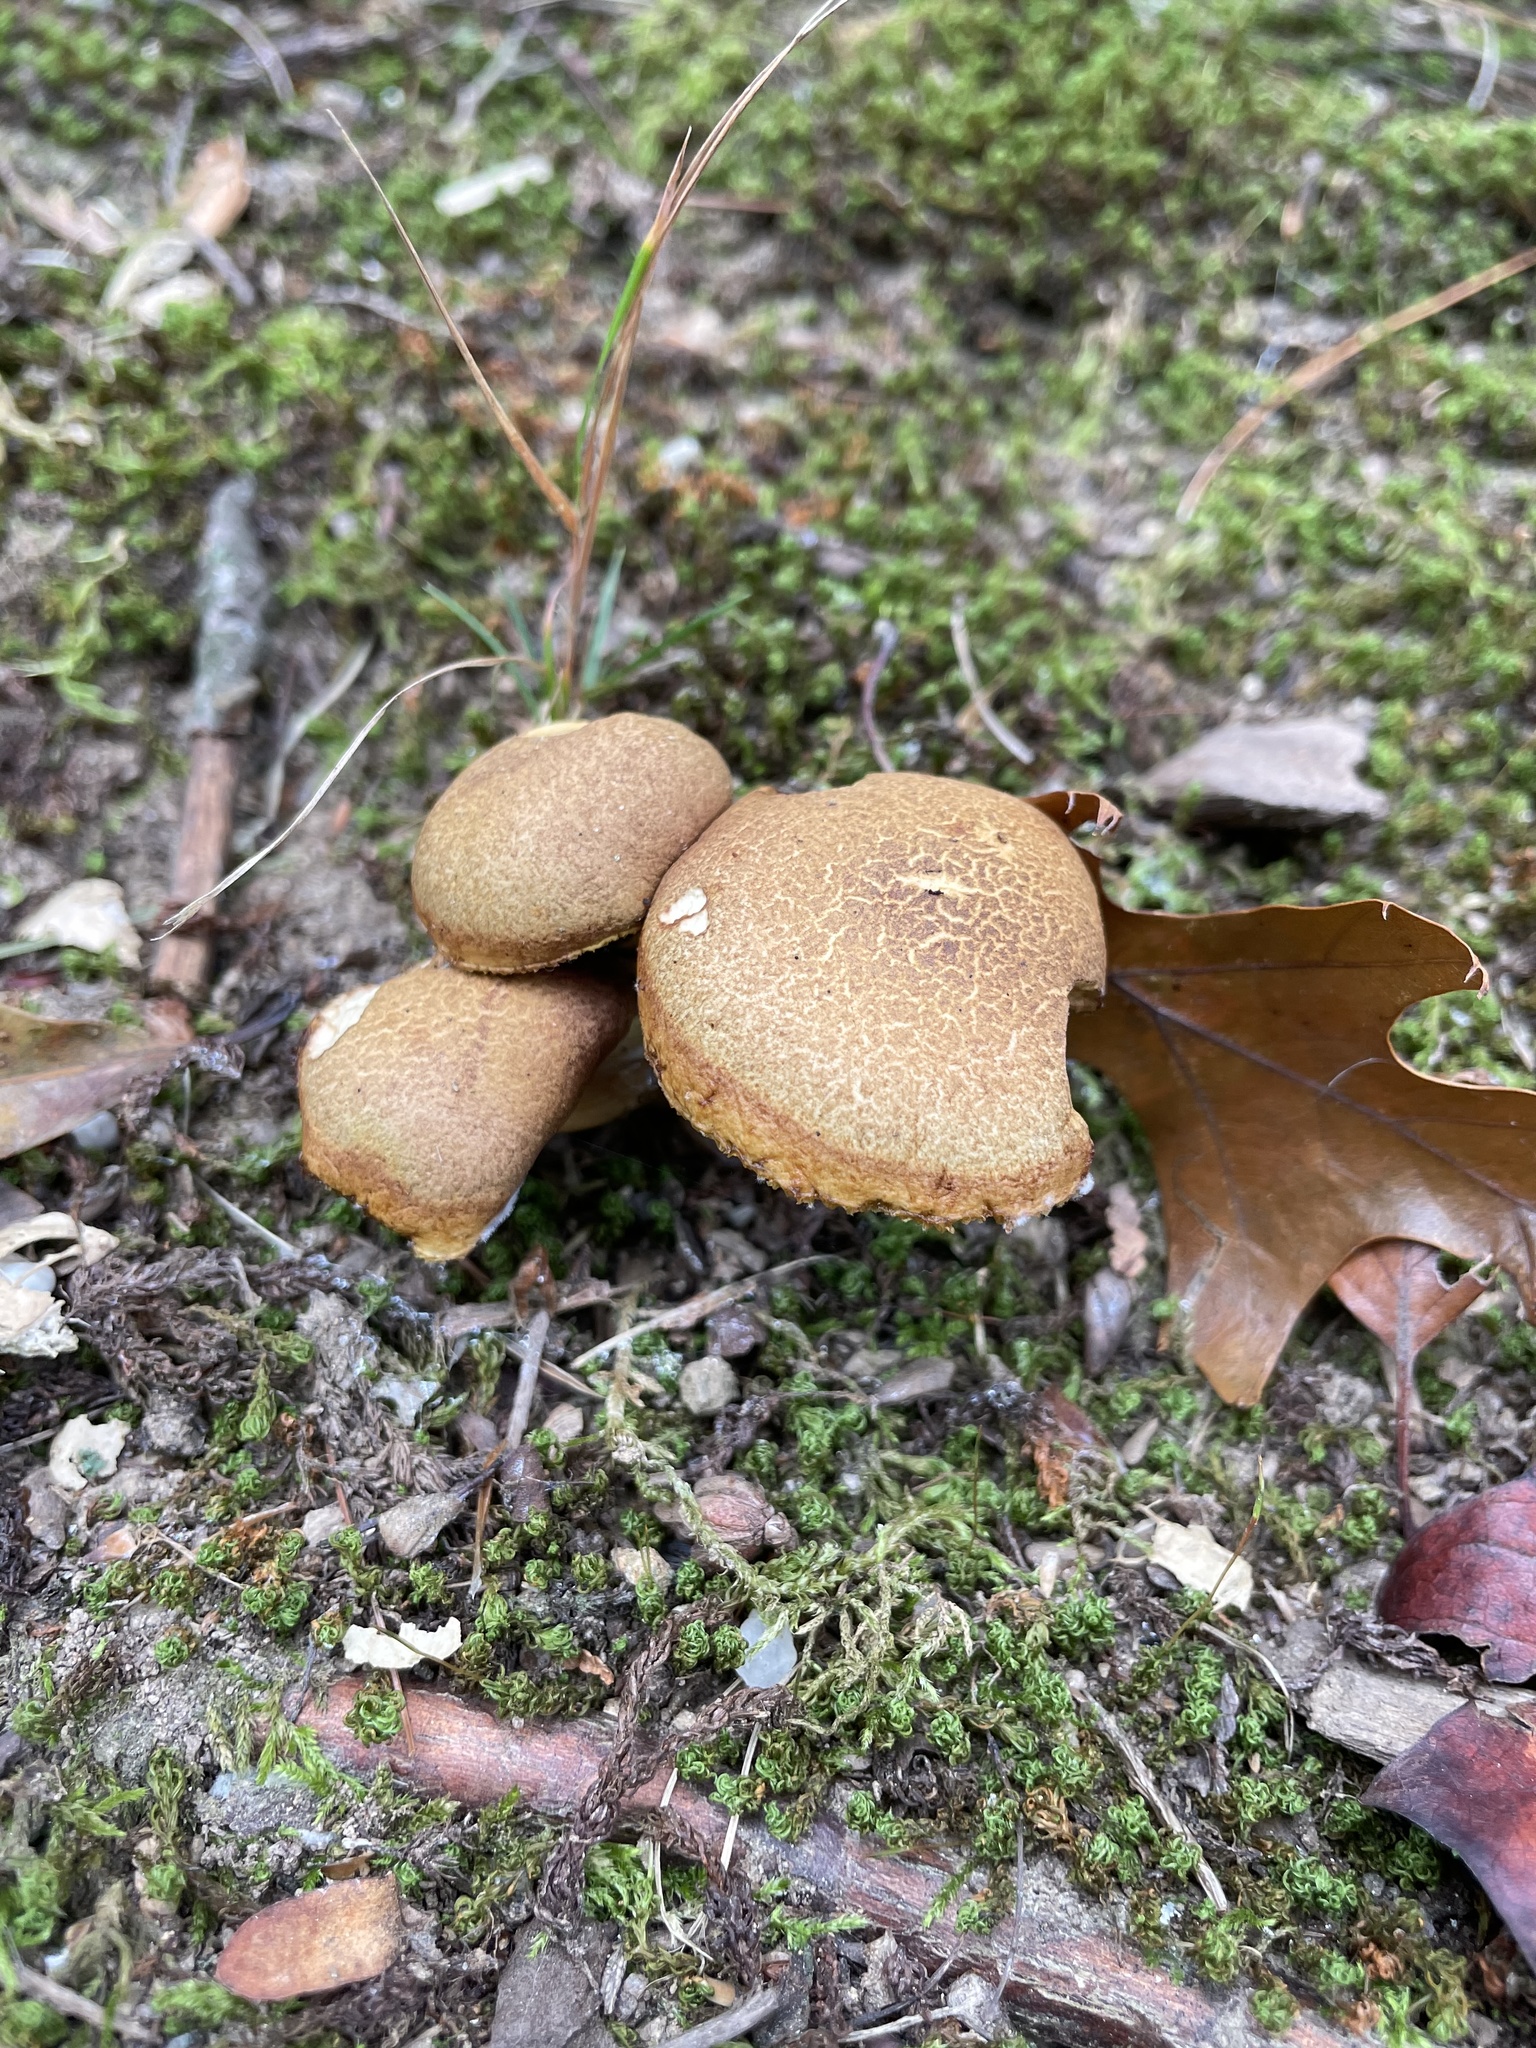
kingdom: Fungi
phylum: Basidiomycota
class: Agaricomycetes
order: Boletales
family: Boletaceae
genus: Aureoboletus
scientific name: Aureoboletus innixus
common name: Clustered brown bolete
